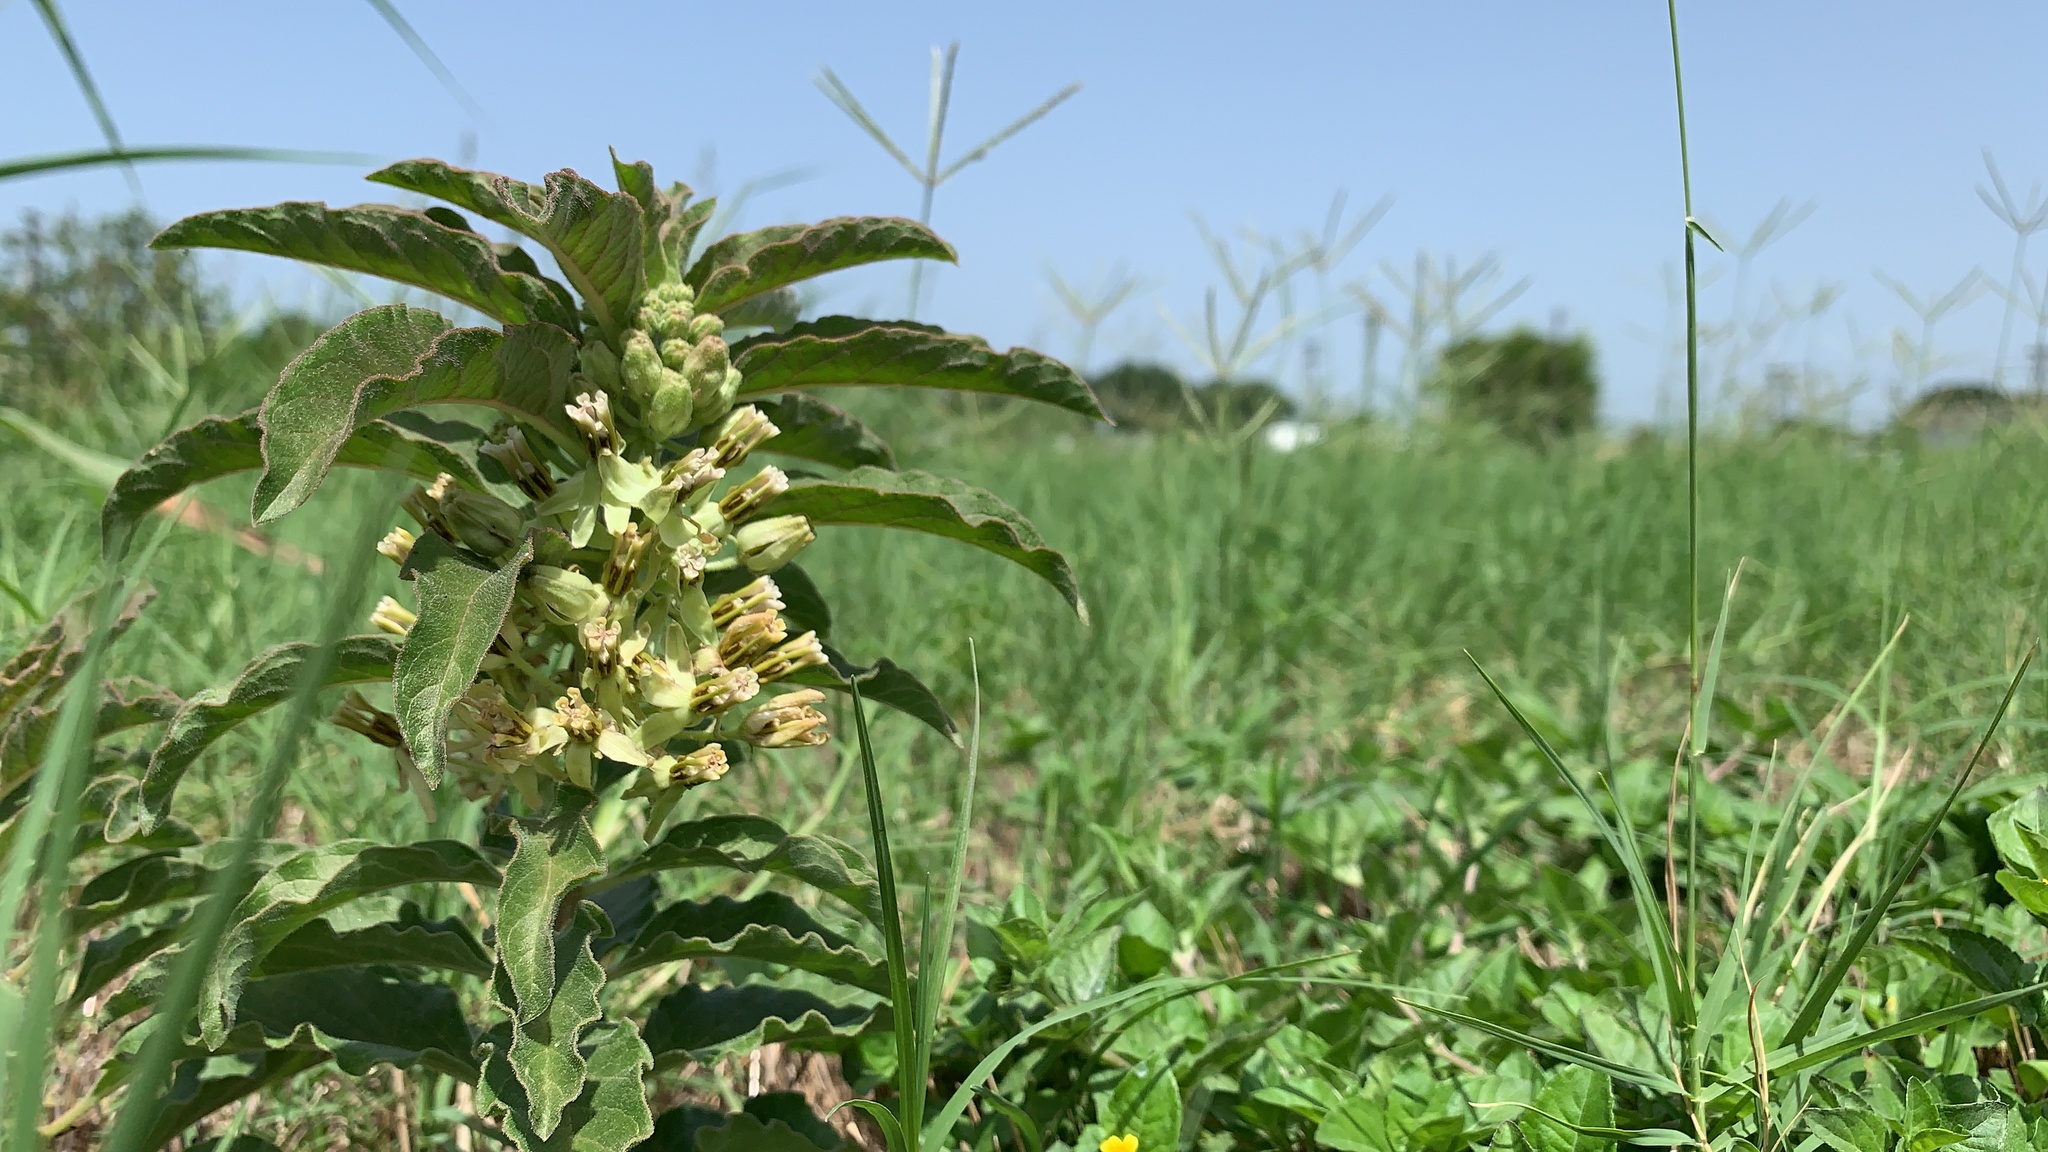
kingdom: Plantae
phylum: Tracheophyta
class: Magnoliopsida
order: Gentianales
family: Apocynaceae
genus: Asclepias
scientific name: Asclepias oenotheroides
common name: Zizotes milkweed
